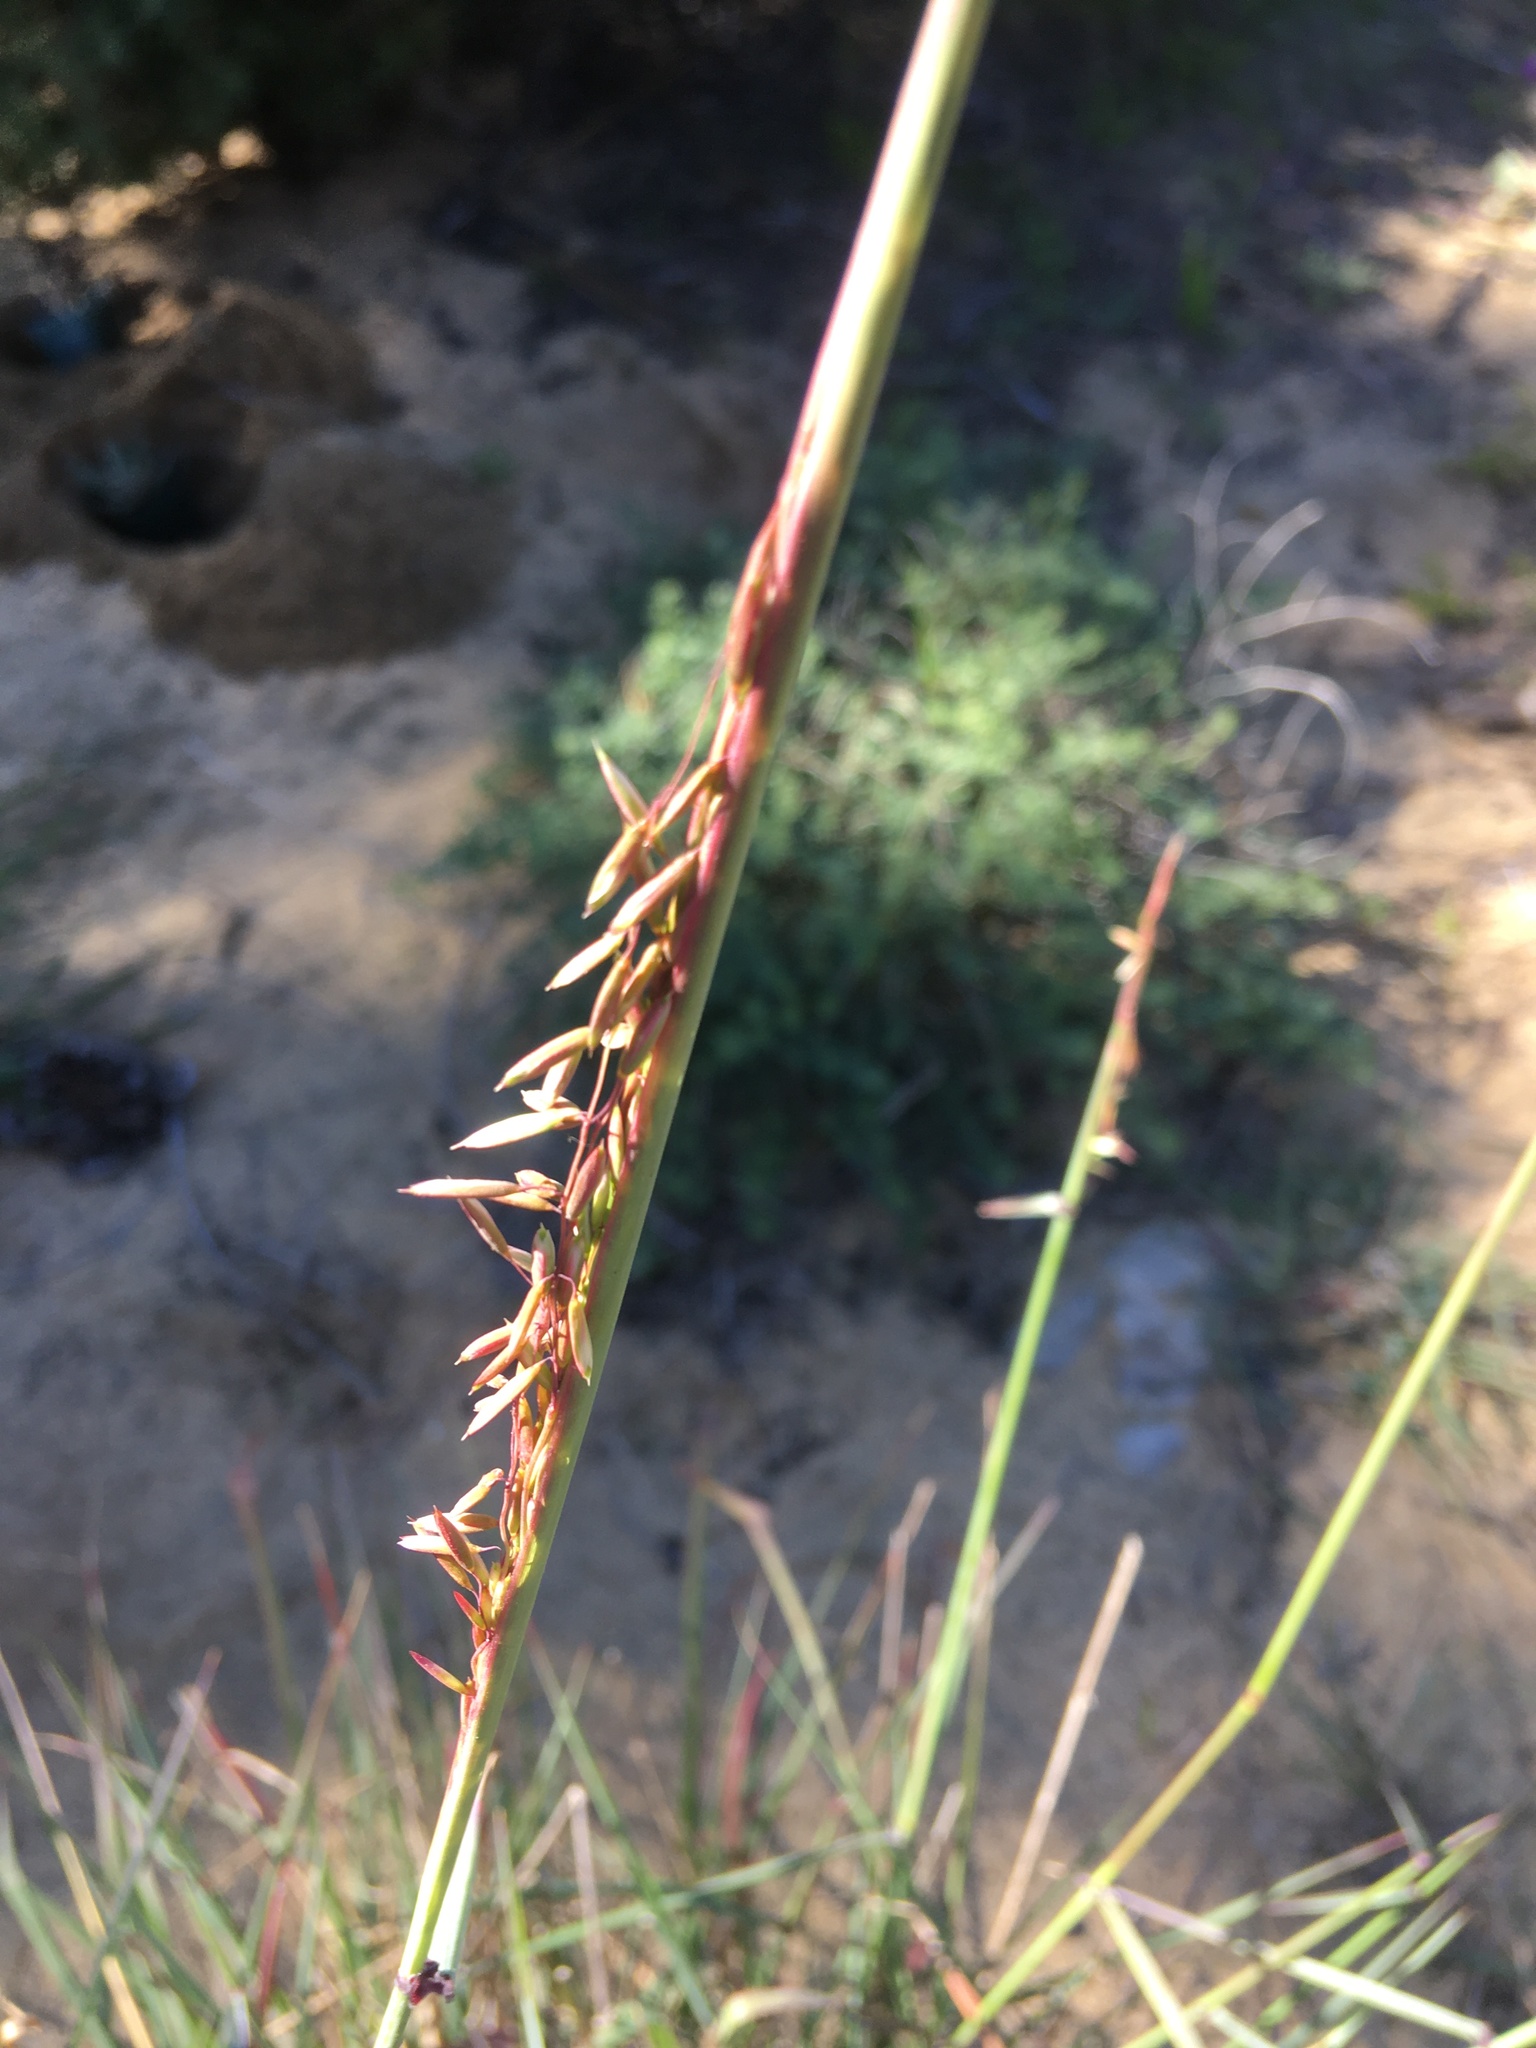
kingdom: Plantae
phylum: Tracheophyta
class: Liliopsida
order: Poales
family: Poaceae
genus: Ehrharta
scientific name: Ehrharta calycina
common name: Perennial veldtgrass
